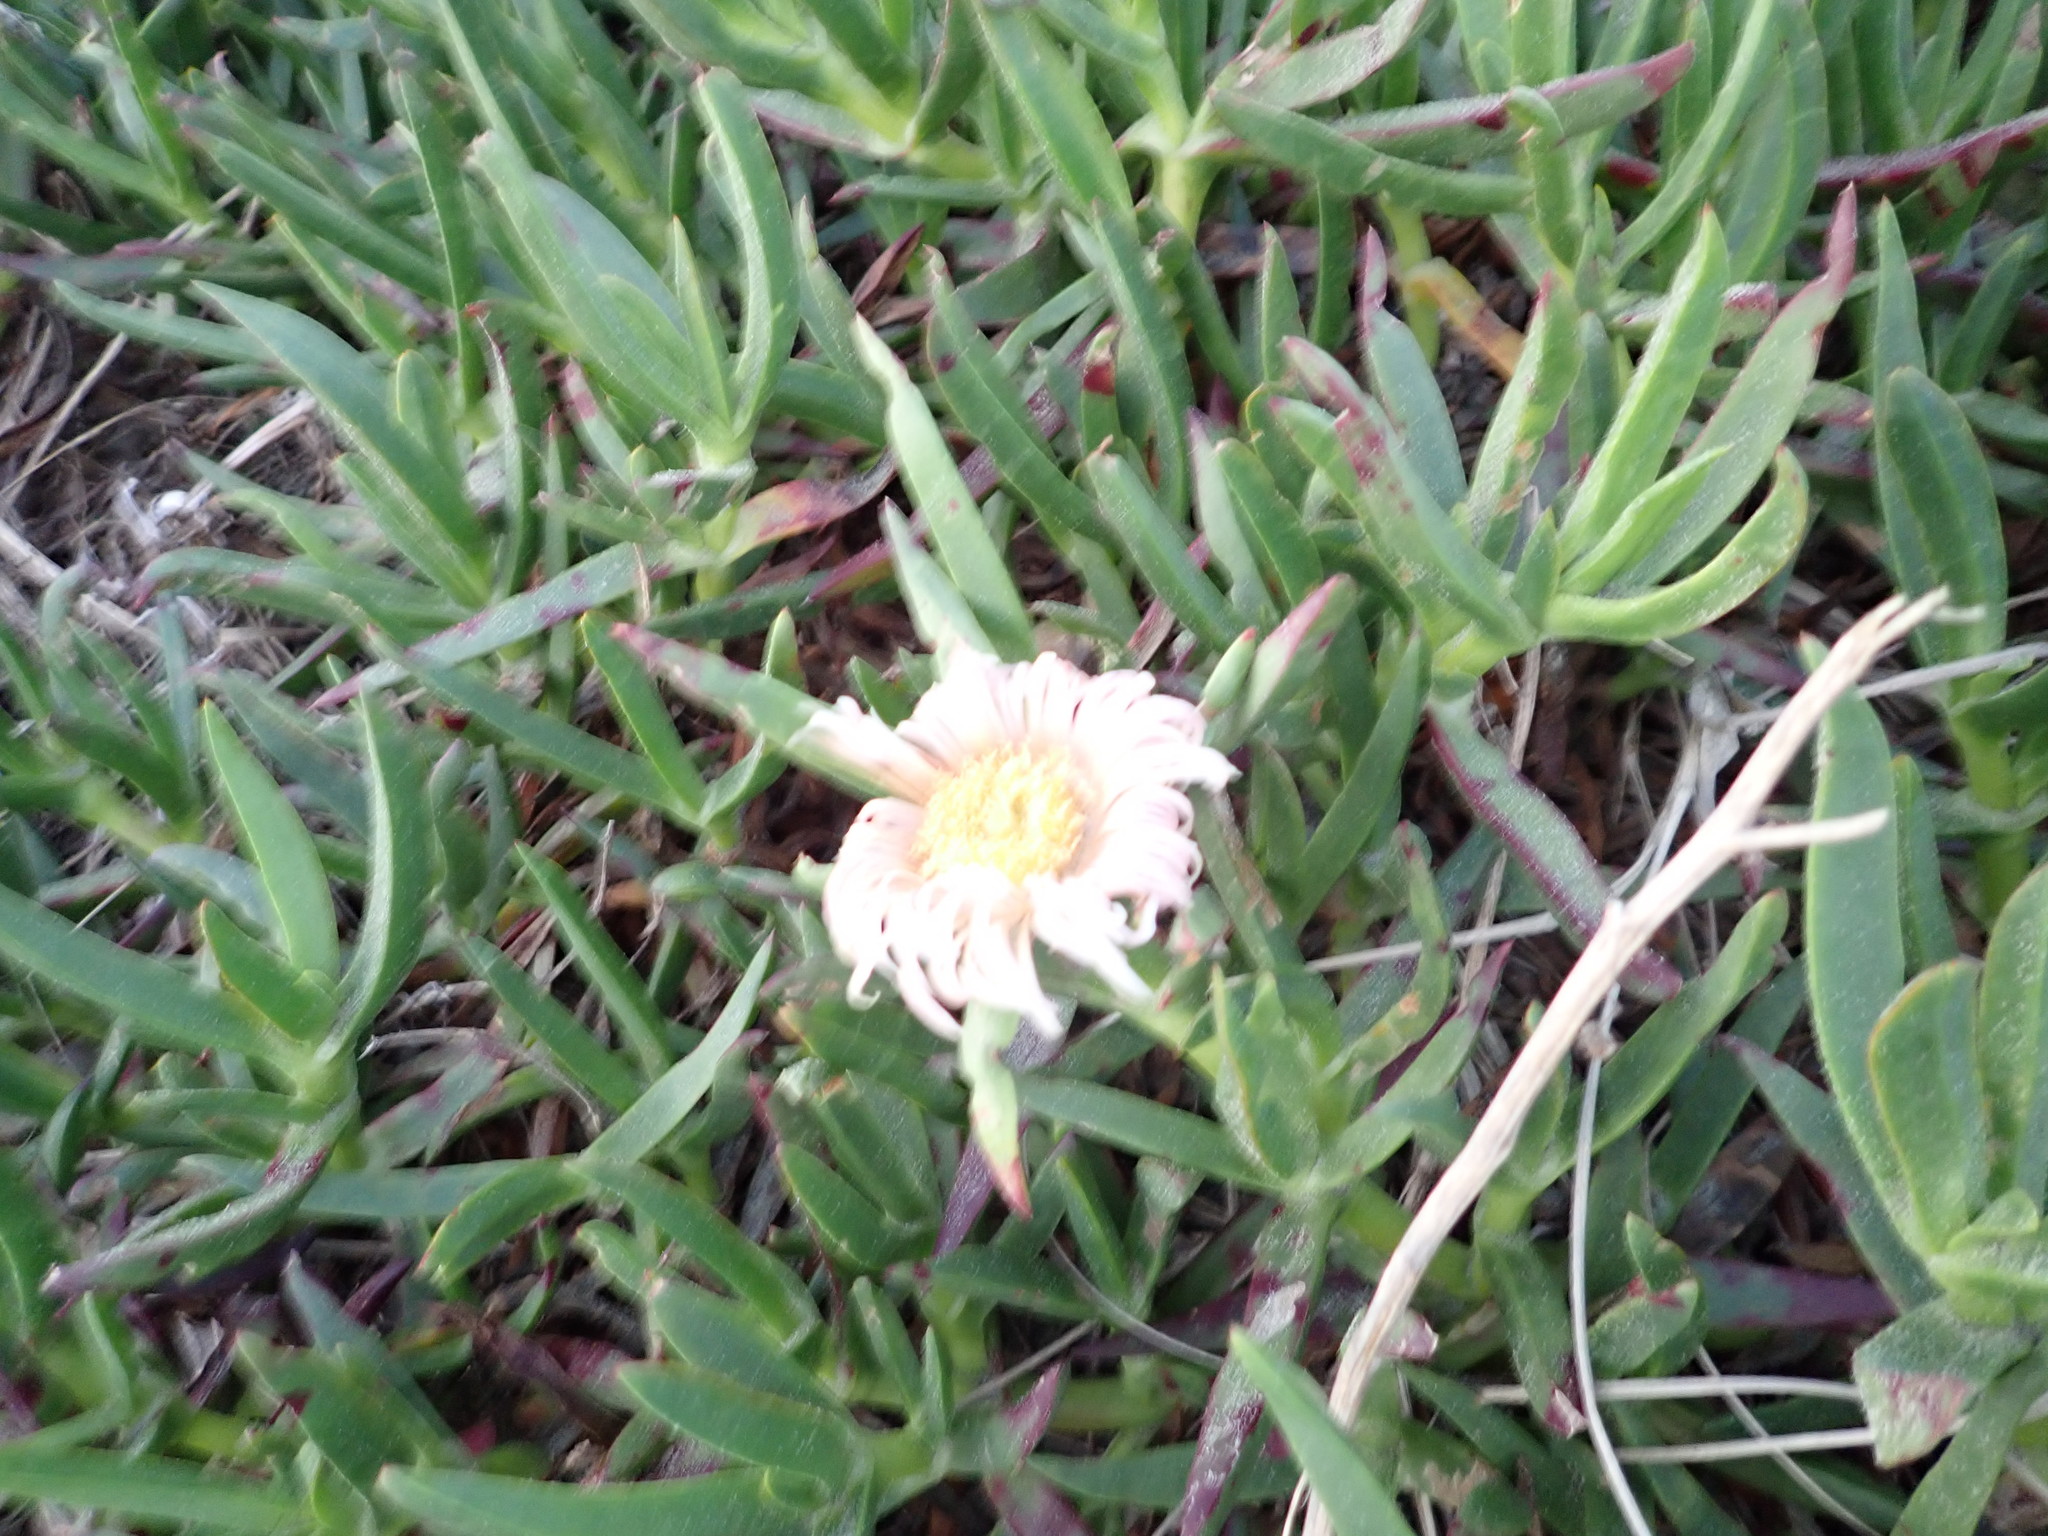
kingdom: Plantae
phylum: Tracheophyta
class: Magnoliopsida
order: Caryophyllales
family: Aizoaceae
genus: Carpobrotus
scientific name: Carpobrotus edulis
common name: Hottentot-fig
